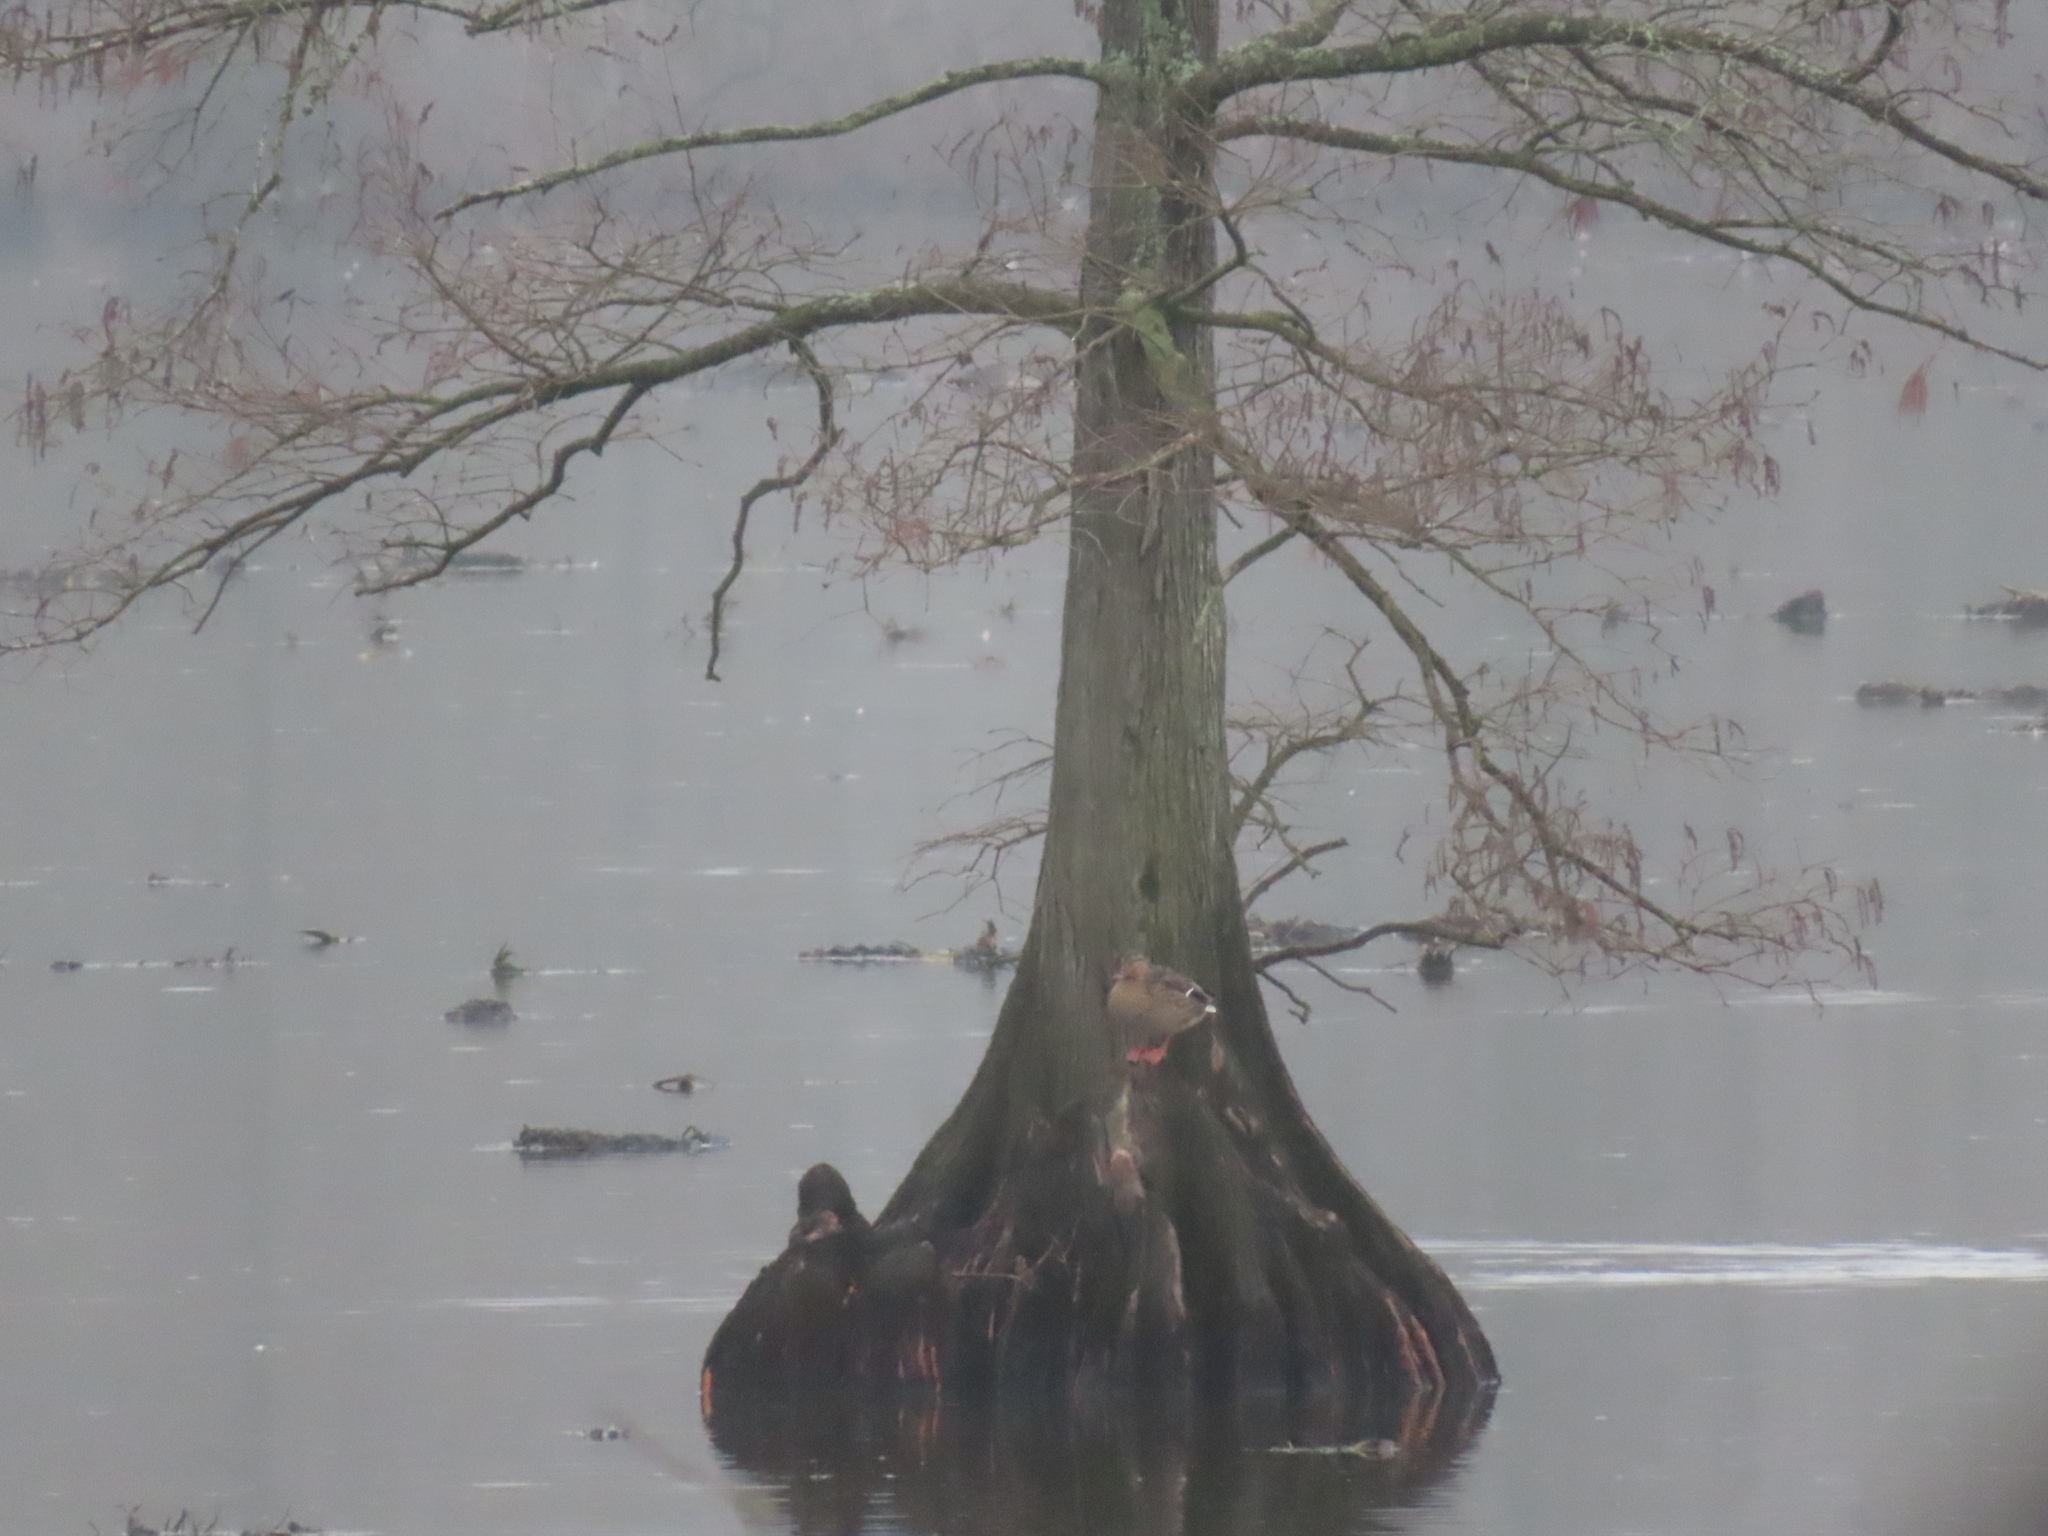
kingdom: Animalia
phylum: Chordata
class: Aves
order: Anseriformes
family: Anatidae
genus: Anas
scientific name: Anas platyrhynchos
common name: Mallard
